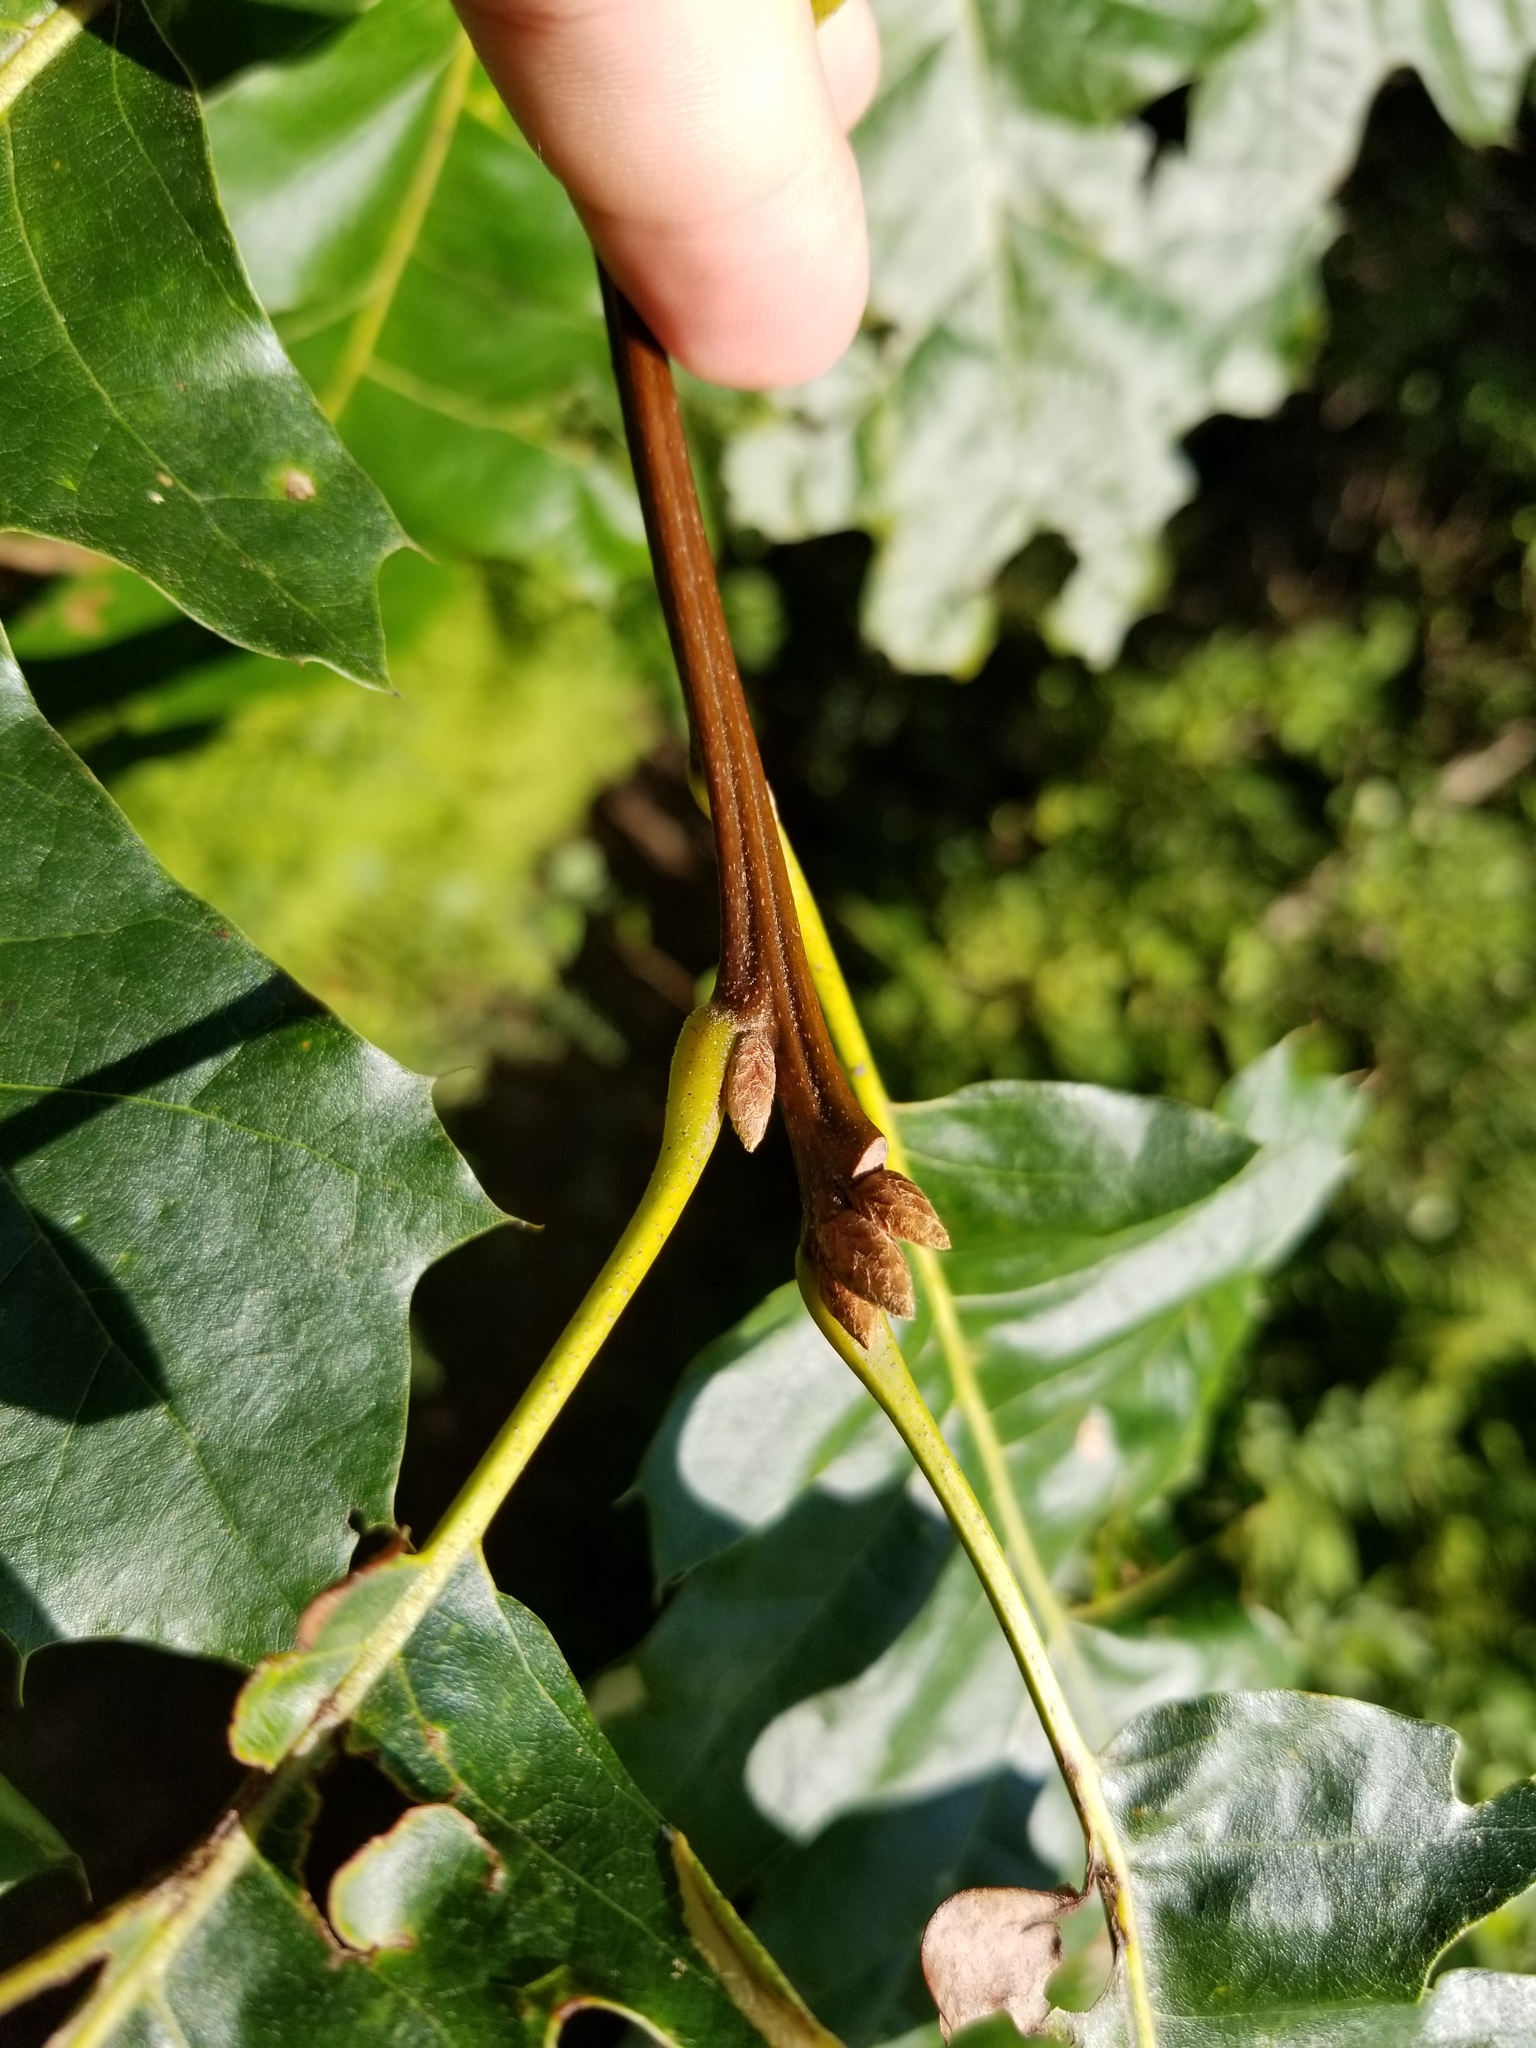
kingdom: Plantae
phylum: Tracheophyta
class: Magnoliopsida
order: Fagales
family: Fagaceae
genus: Quercus
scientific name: Quercus velutina
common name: Black oak
